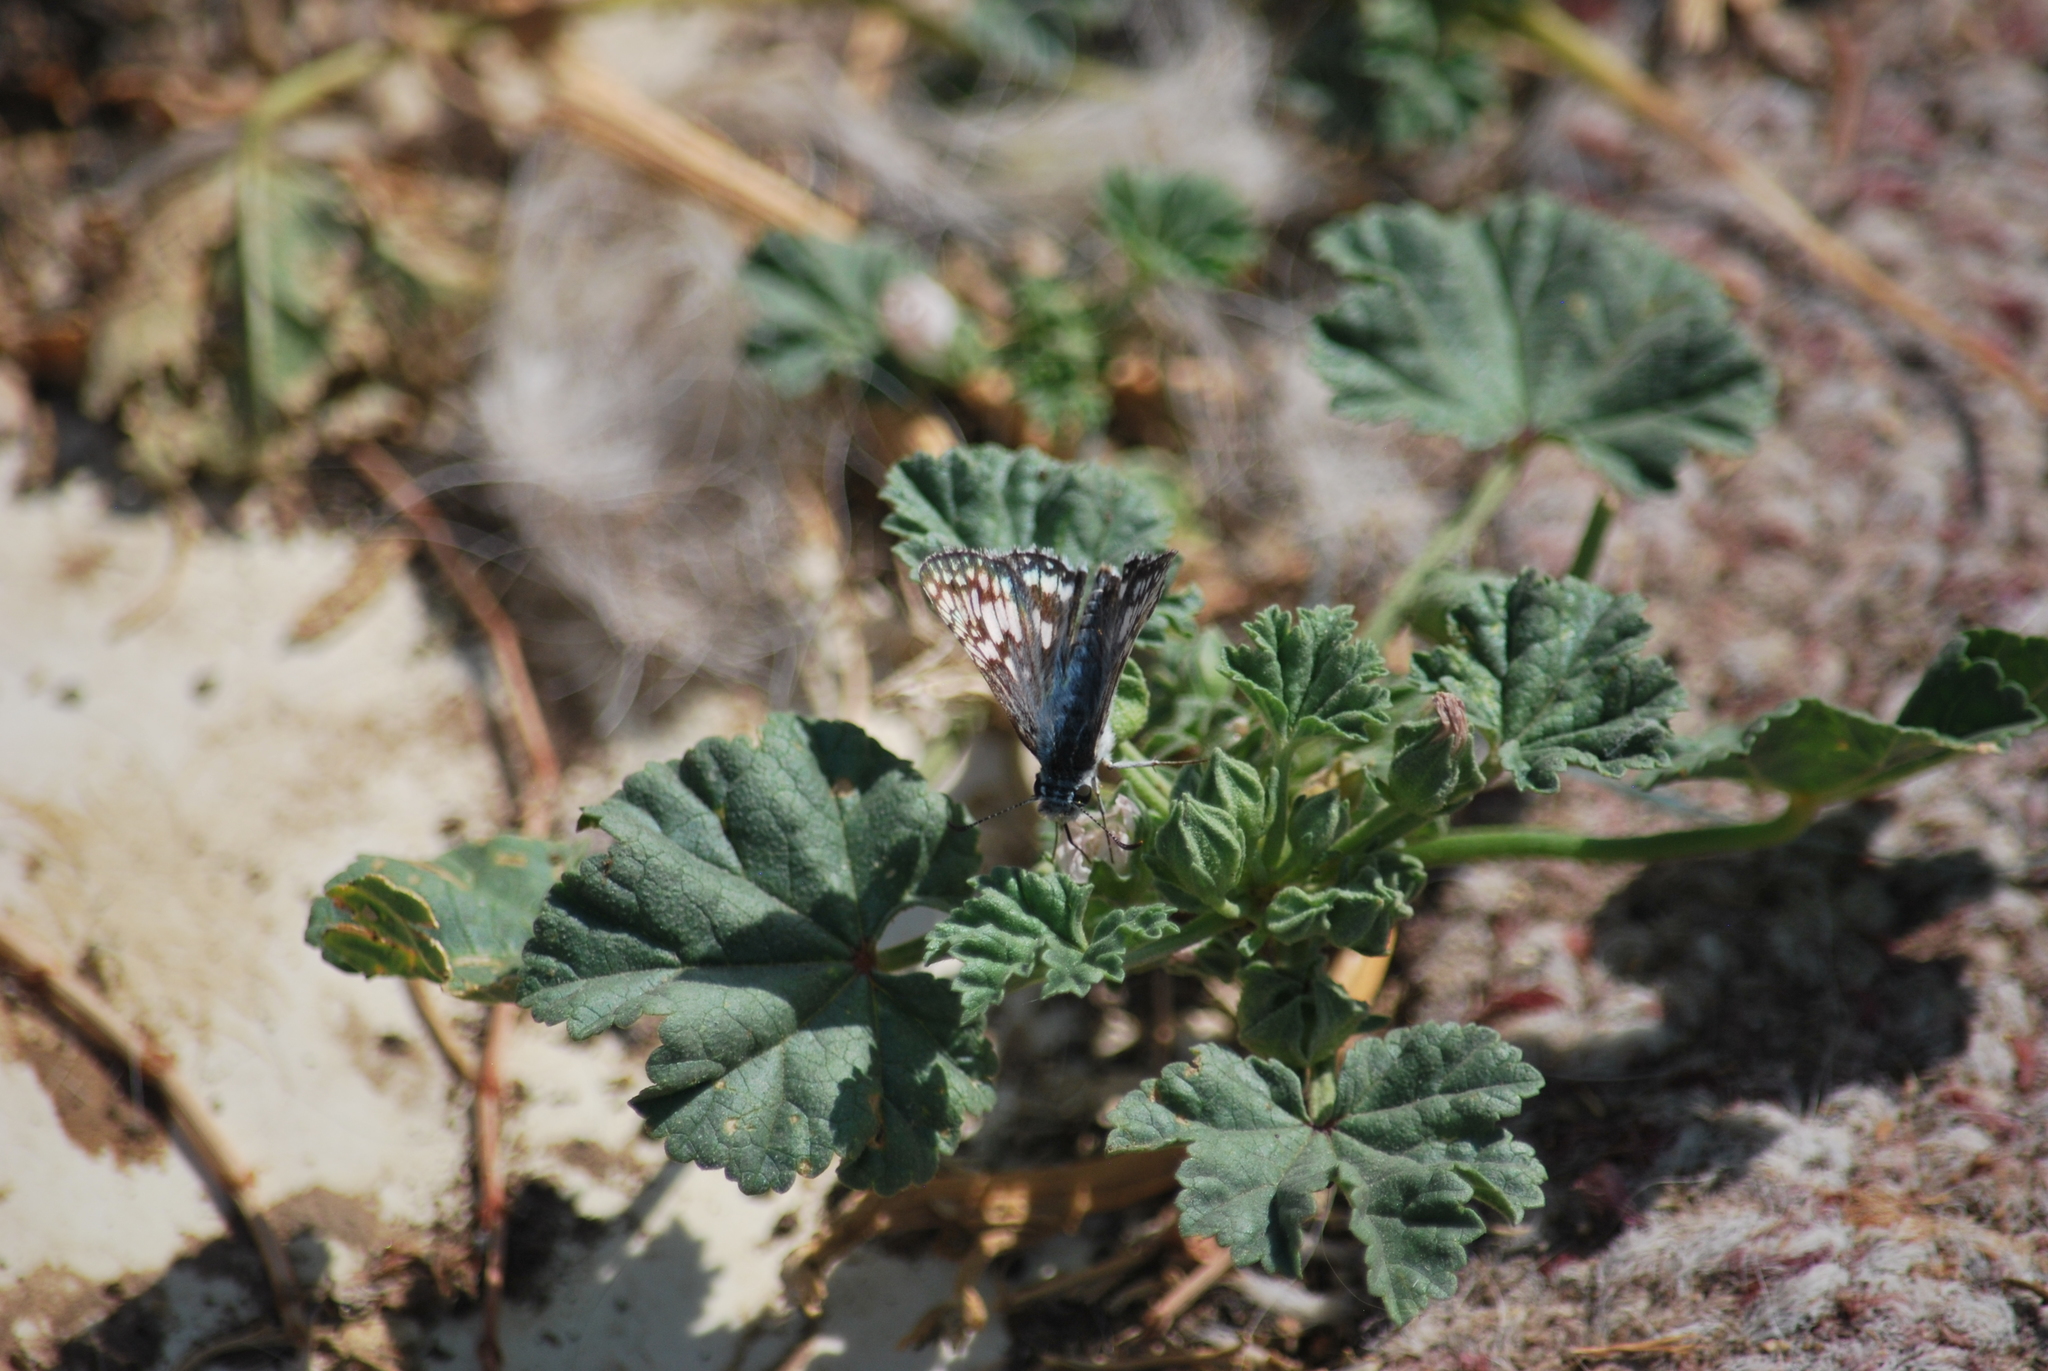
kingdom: Animalia
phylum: Arthropoda
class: Insecta
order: Lepidoptera
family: Hesperiidae
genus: Burnsius
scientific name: Burnsius communis
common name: Common checkered-skipper
